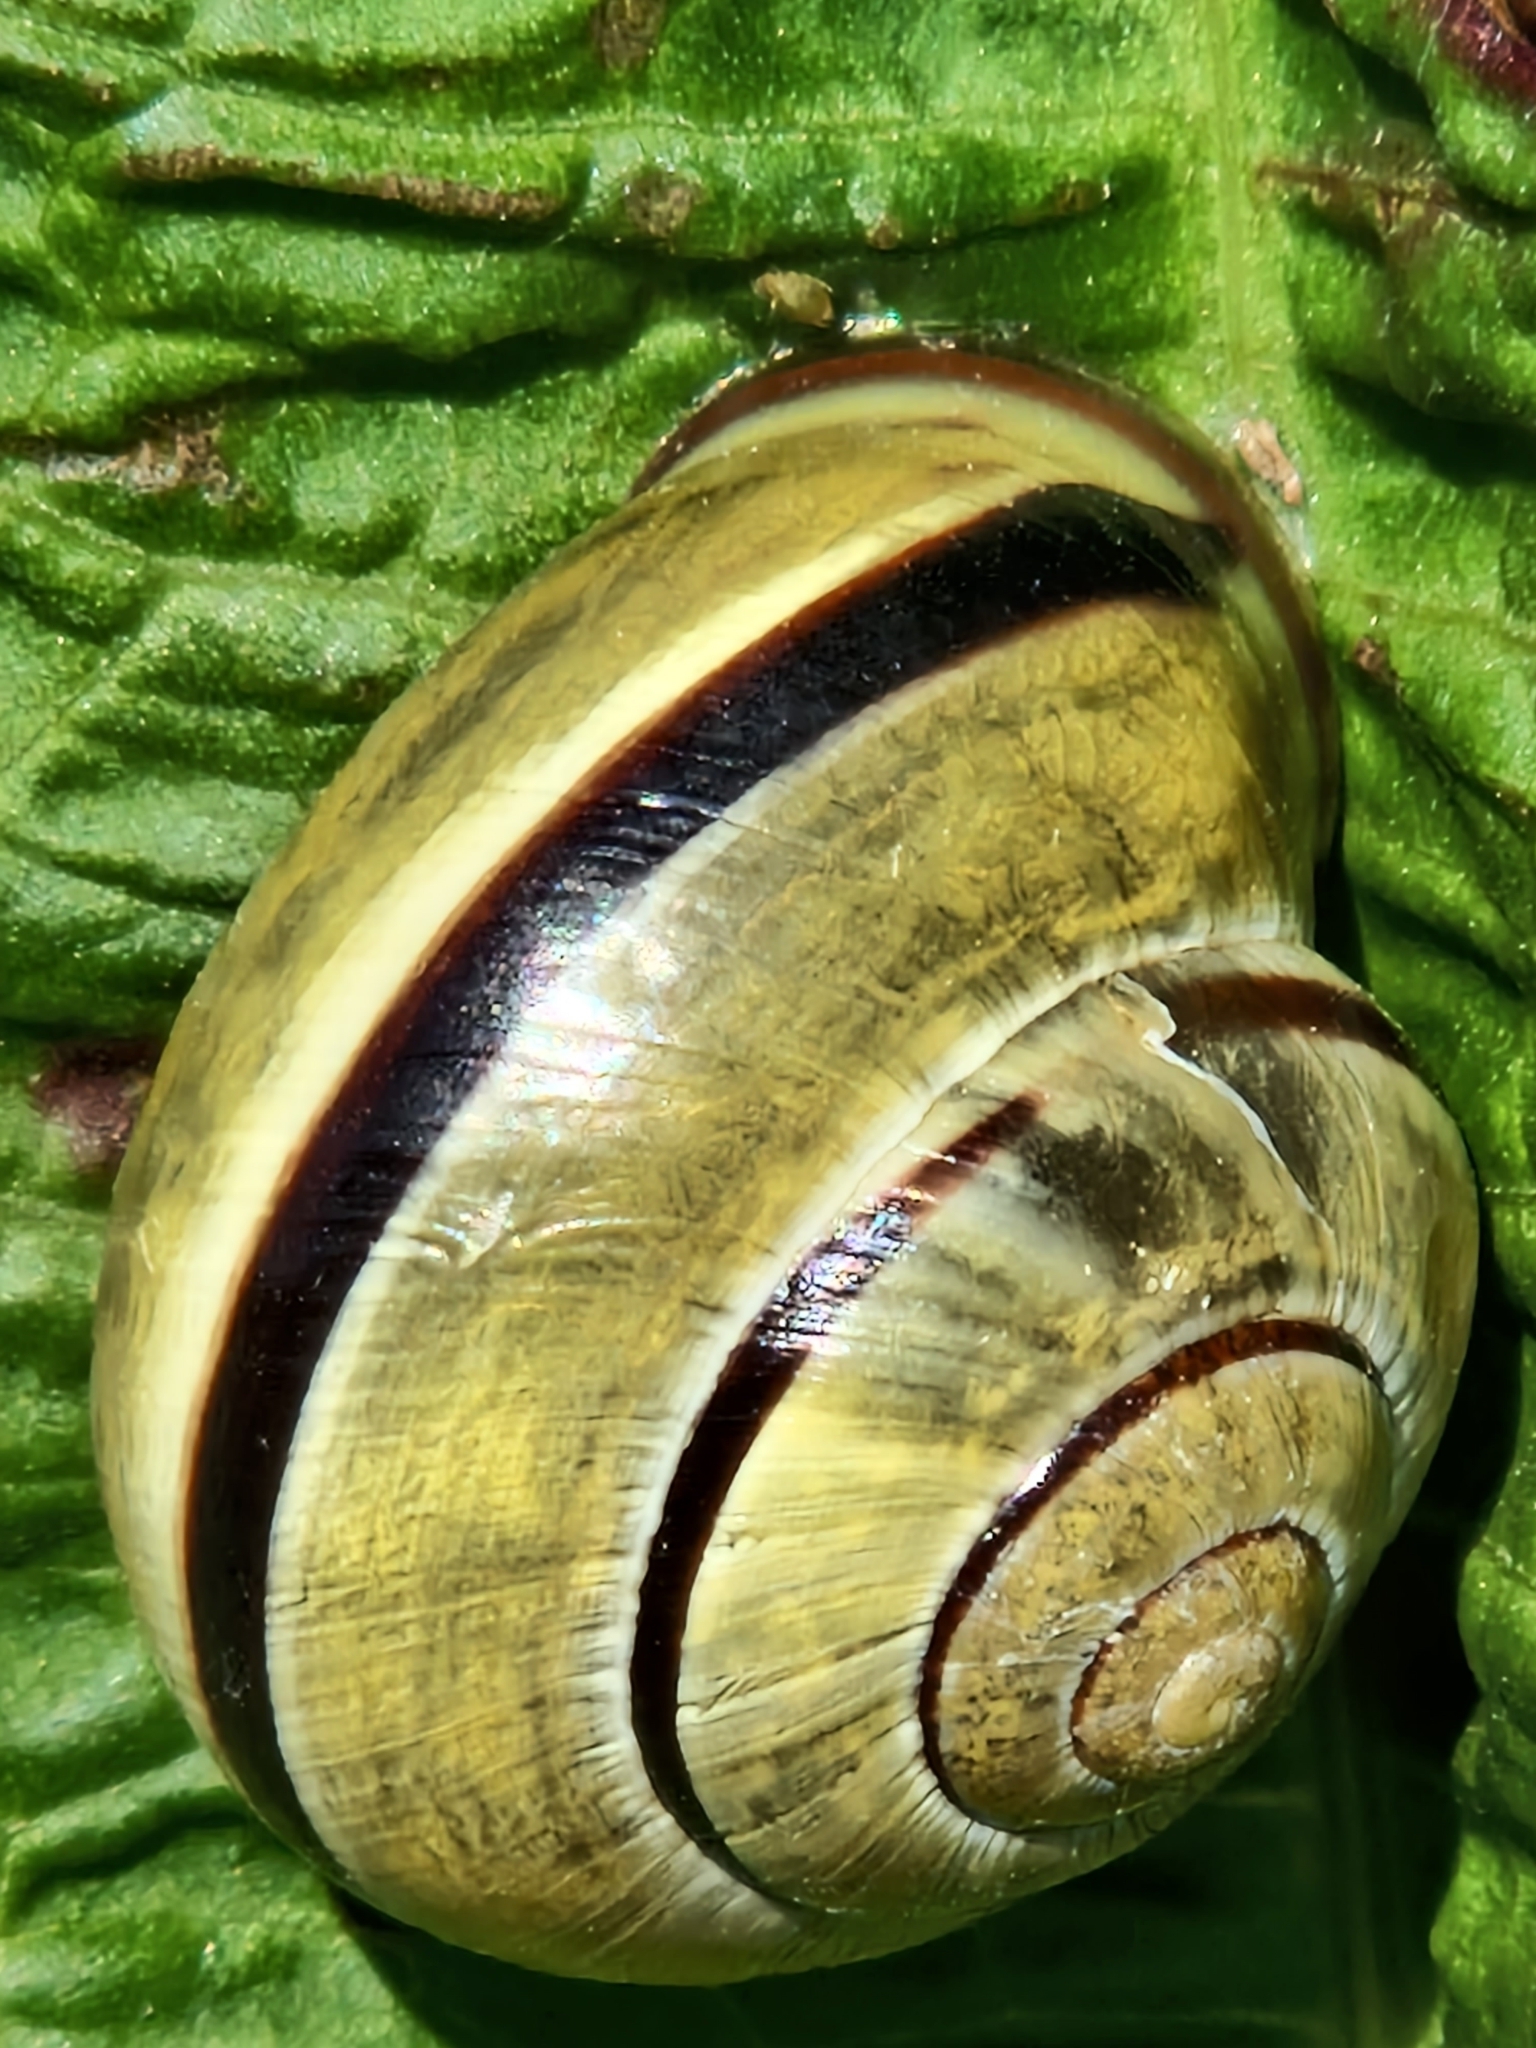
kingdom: Animalia
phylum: Mollusca
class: Gastropoda
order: Stylommatophora
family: Helicidae
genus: Cepaea
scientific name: Cepaea nemoralis
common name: Grovesnail
